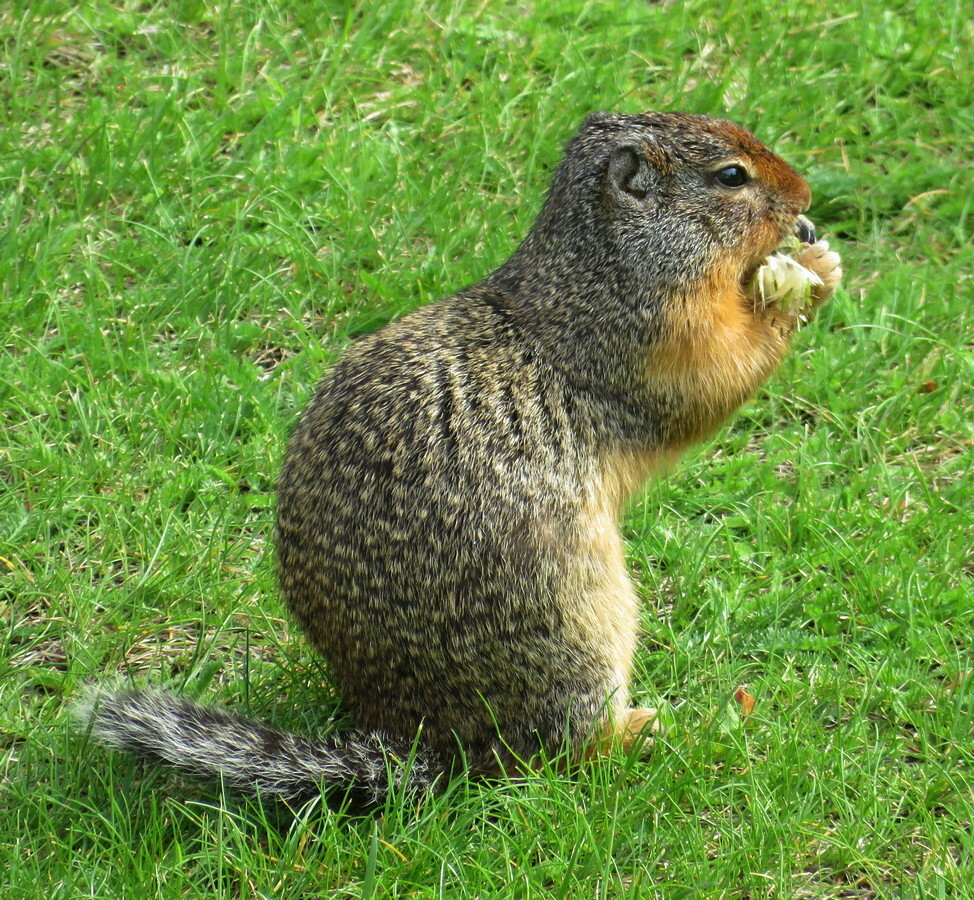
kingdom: Animalia
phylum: Chordata
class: Mammalia
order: Rodentia
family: Sciuridae
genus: Urocitellus
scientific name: Urocitellus columbianus
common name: Columbian ground squirrel
